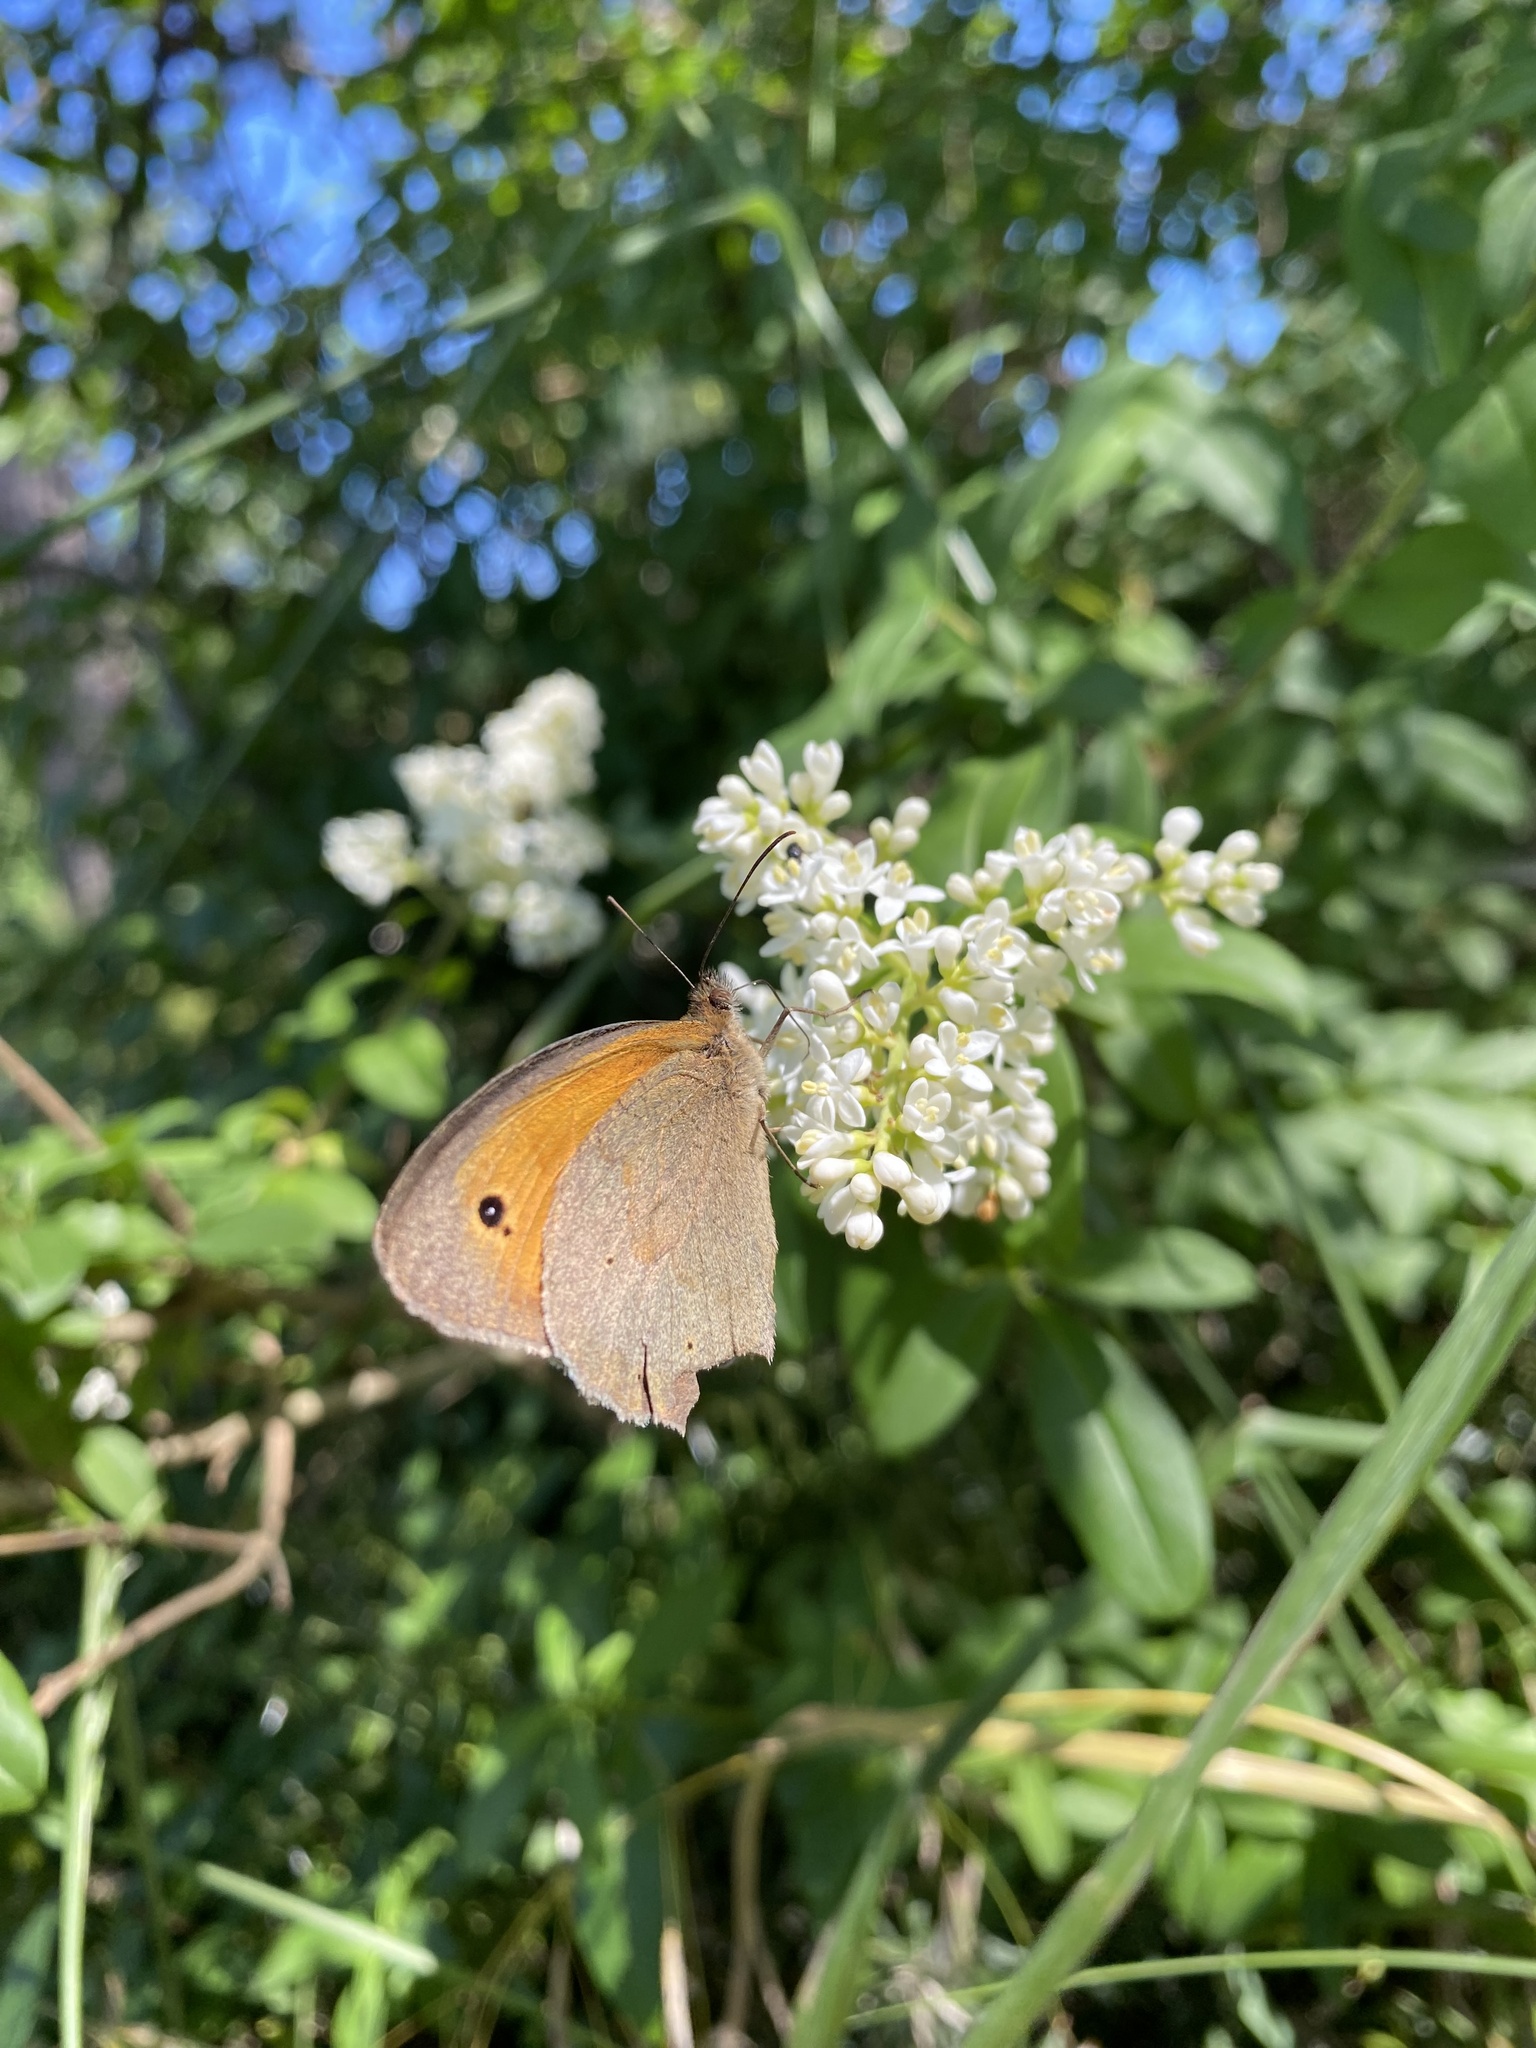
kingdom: Animalia
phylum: Arthropoda
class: Insecta
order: Lepidoptera
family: Nymphalidae
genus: Maniola
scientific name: Maniola jurtina
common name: Meadow brown
